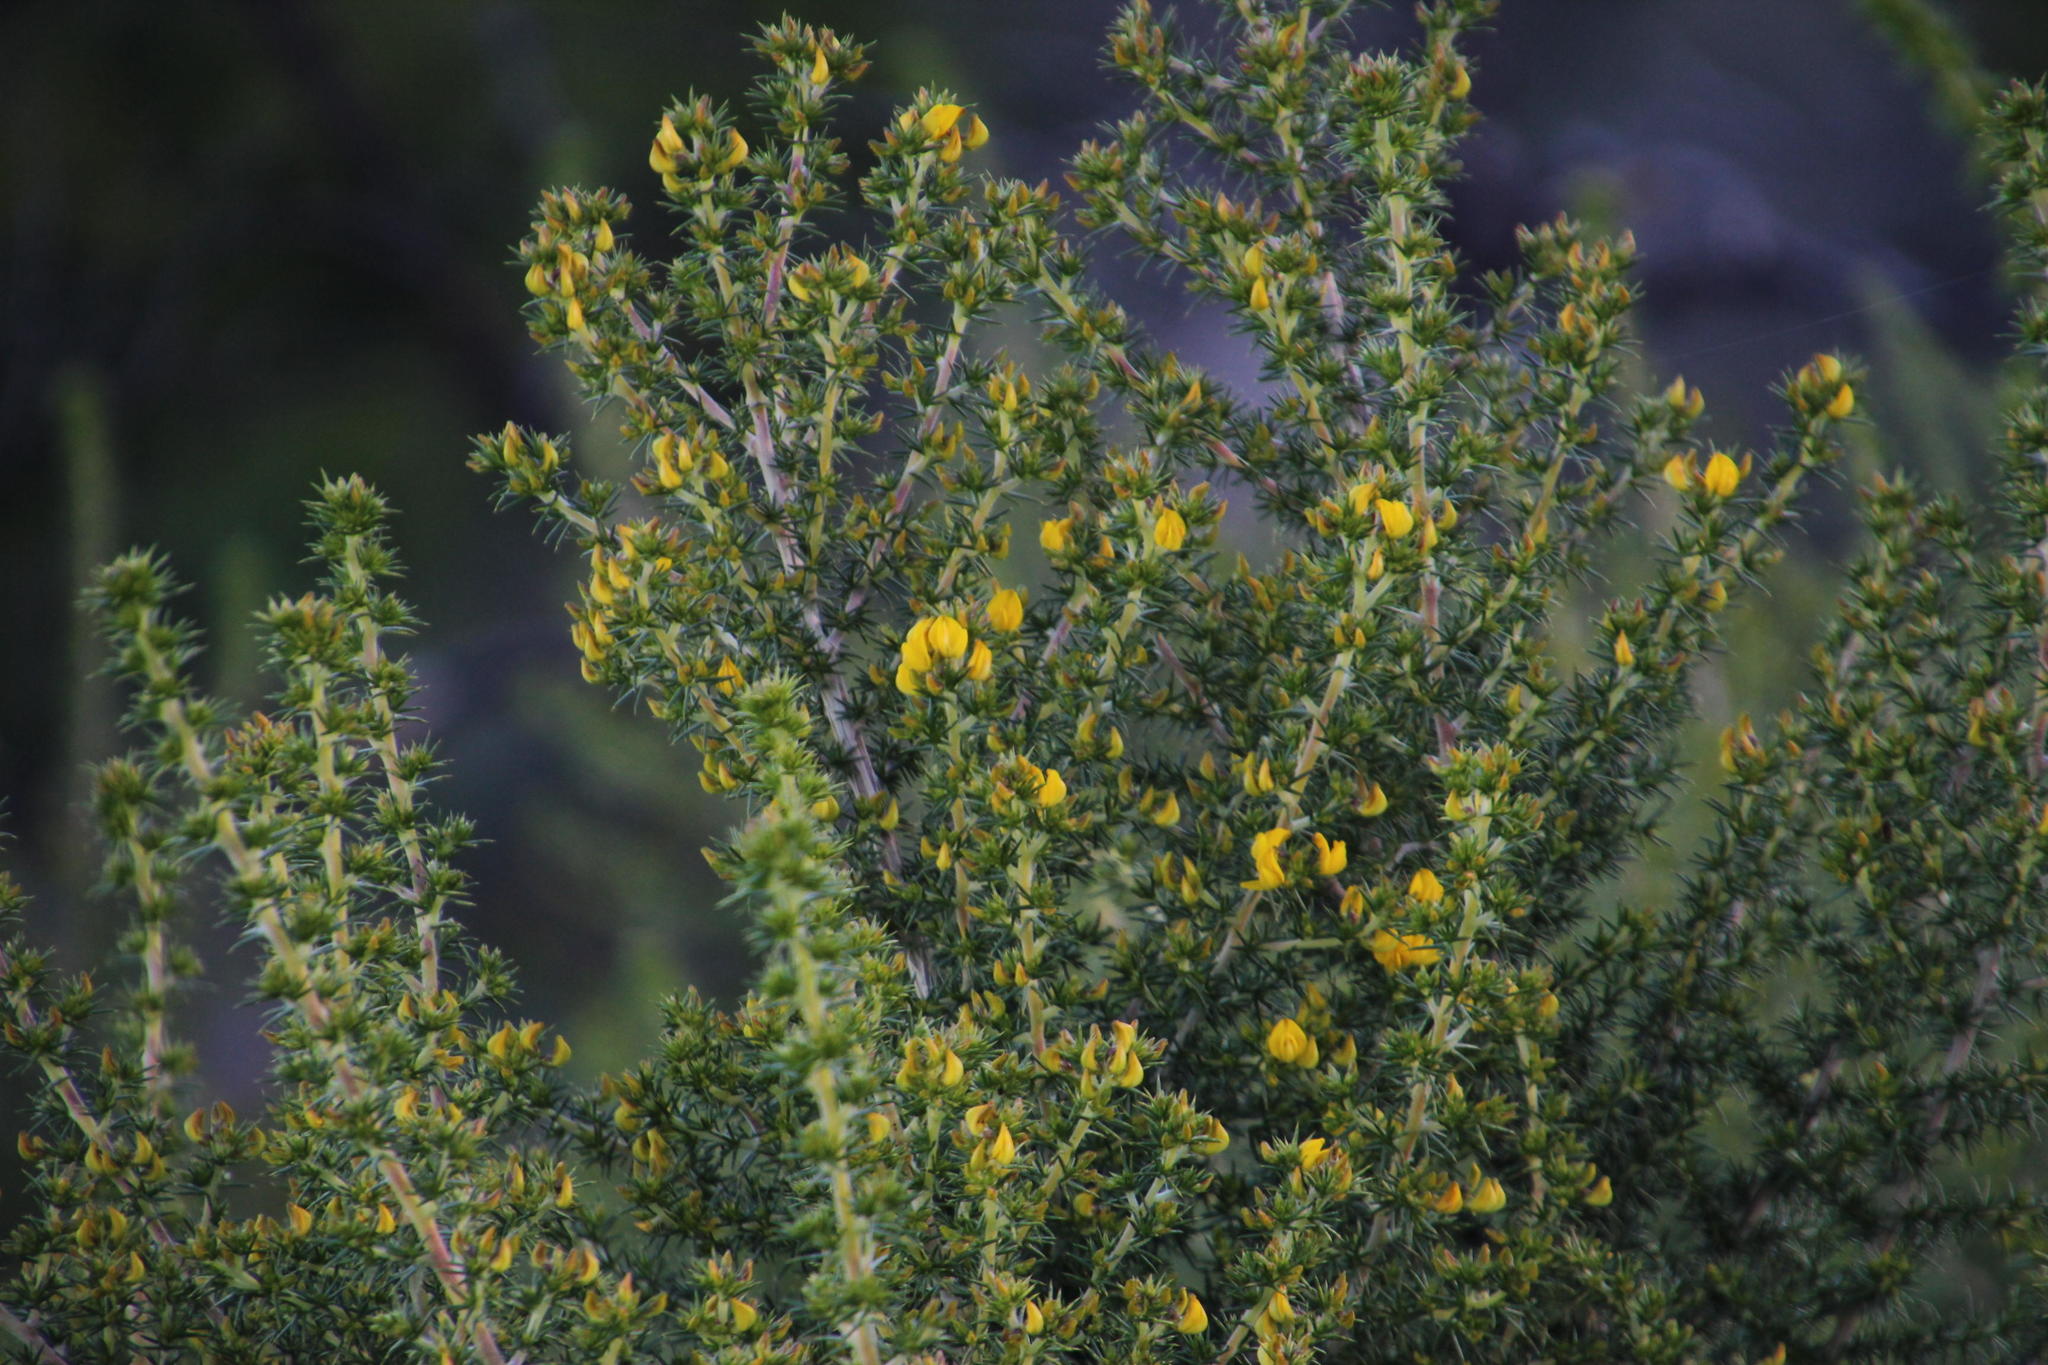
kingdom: Plantae
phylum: Tracheophyta
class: Magnoliopsida
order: Fabales
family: Fabaceae
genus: Aspalathus
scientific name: Aspalathus astroites
